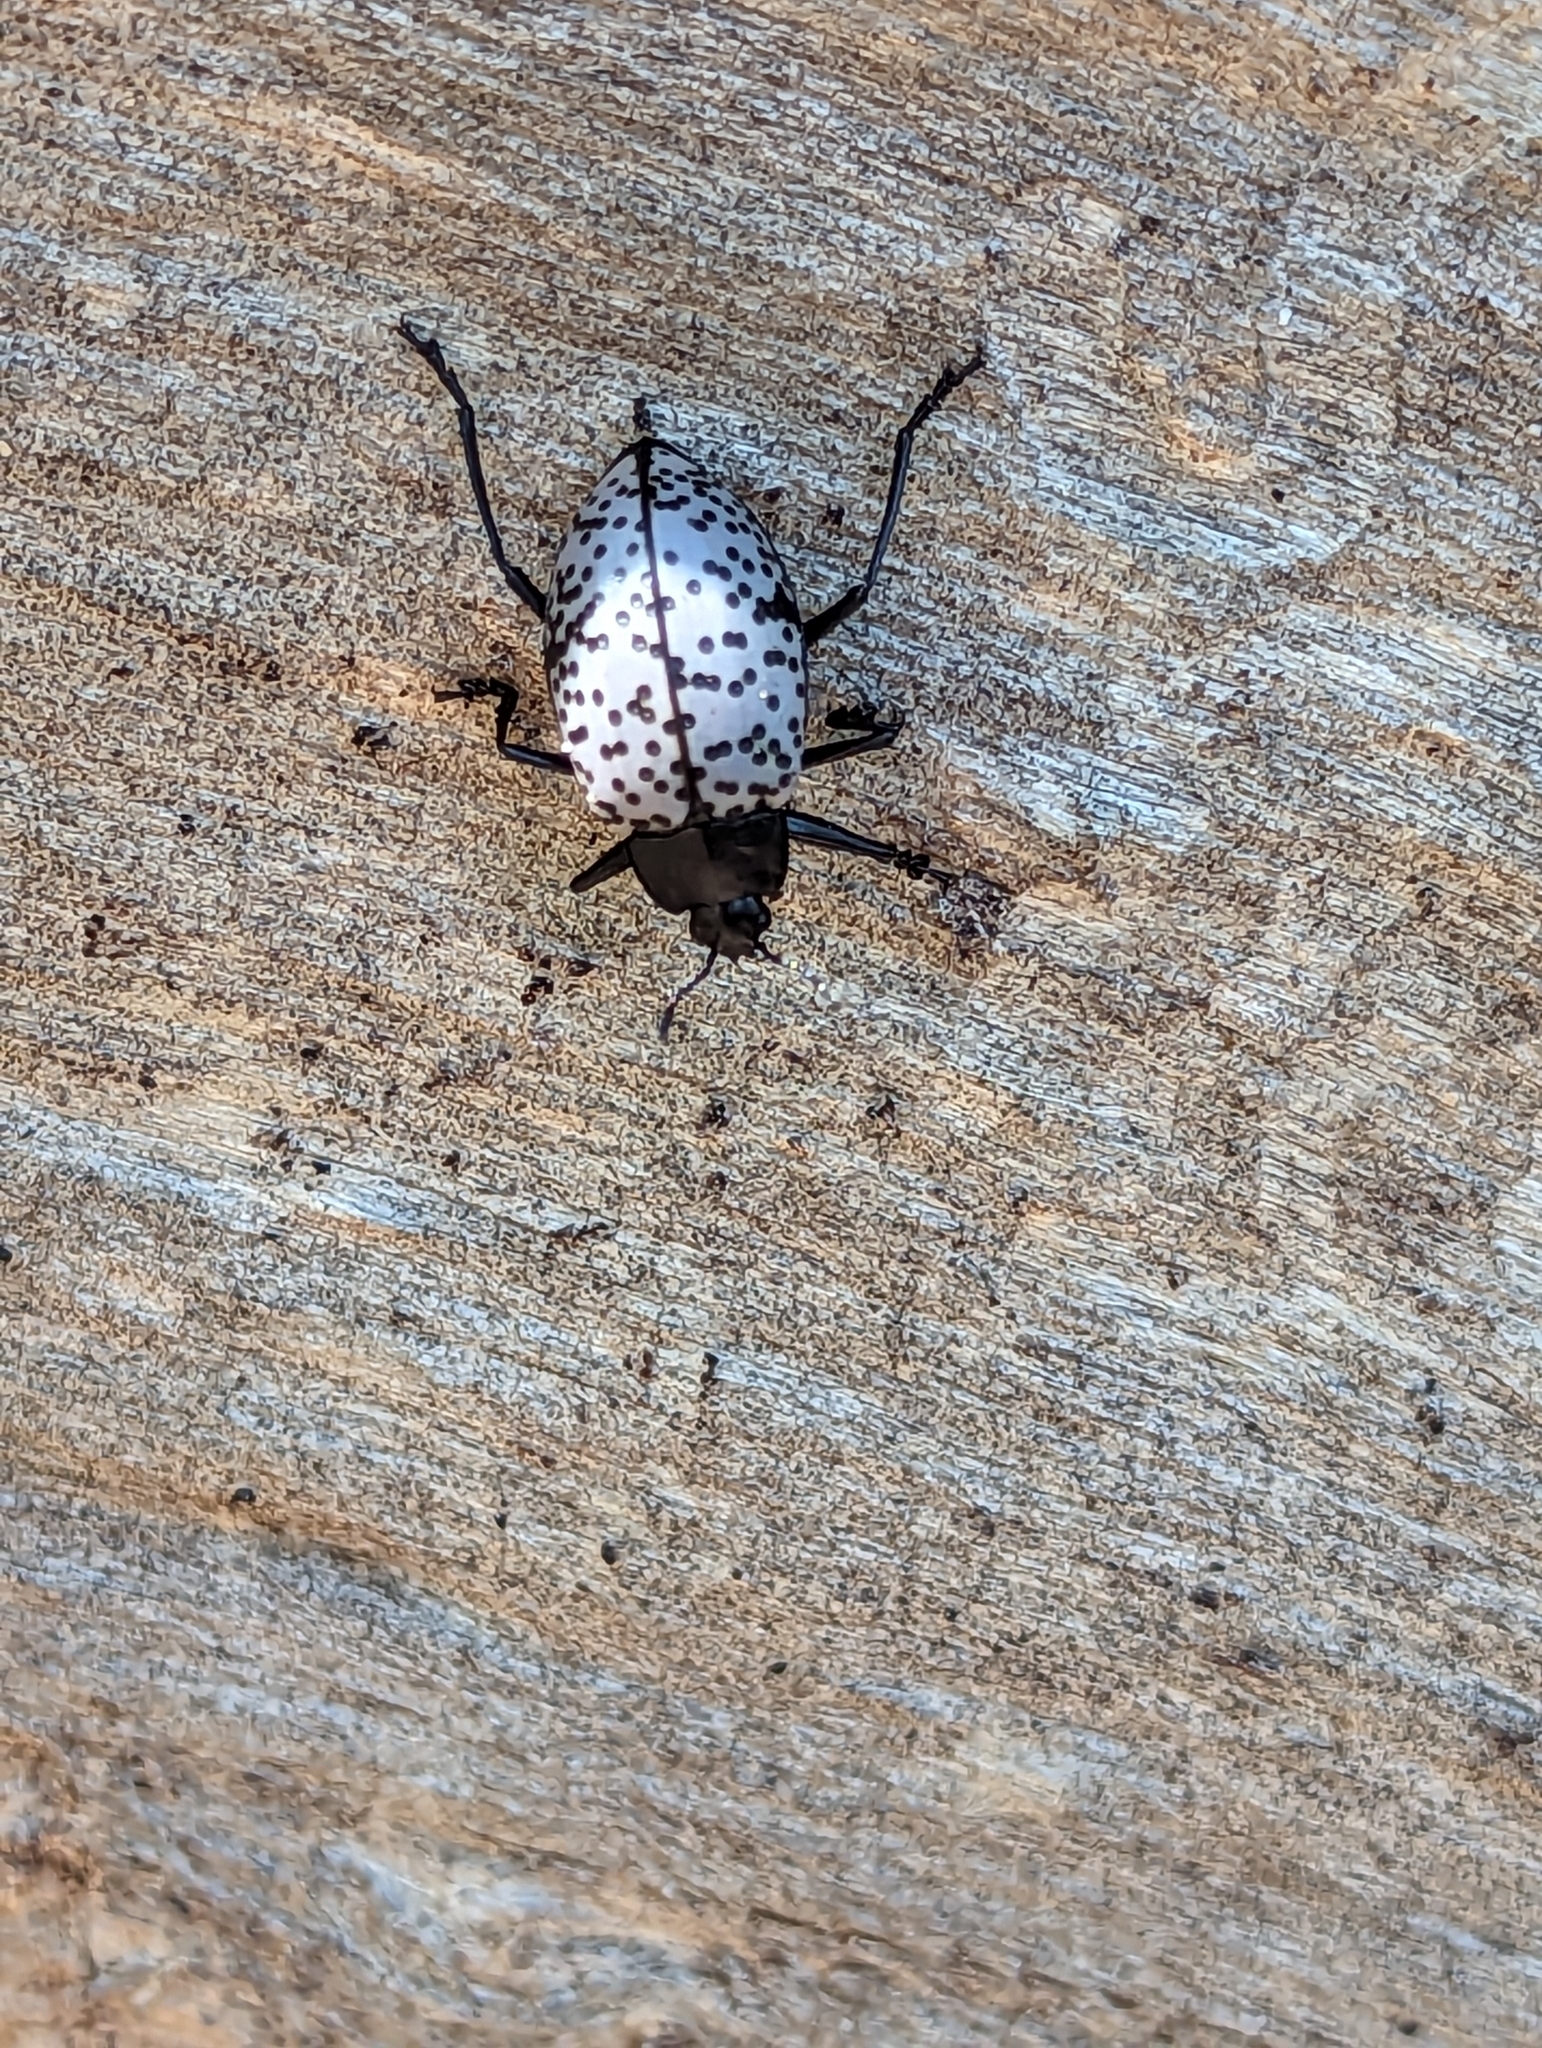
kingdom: Animalia
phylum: Arthropoda
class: Insecta
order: Coleoptera
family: Erotylidae
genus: Gibbifer
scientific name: Gibbifer californicus
